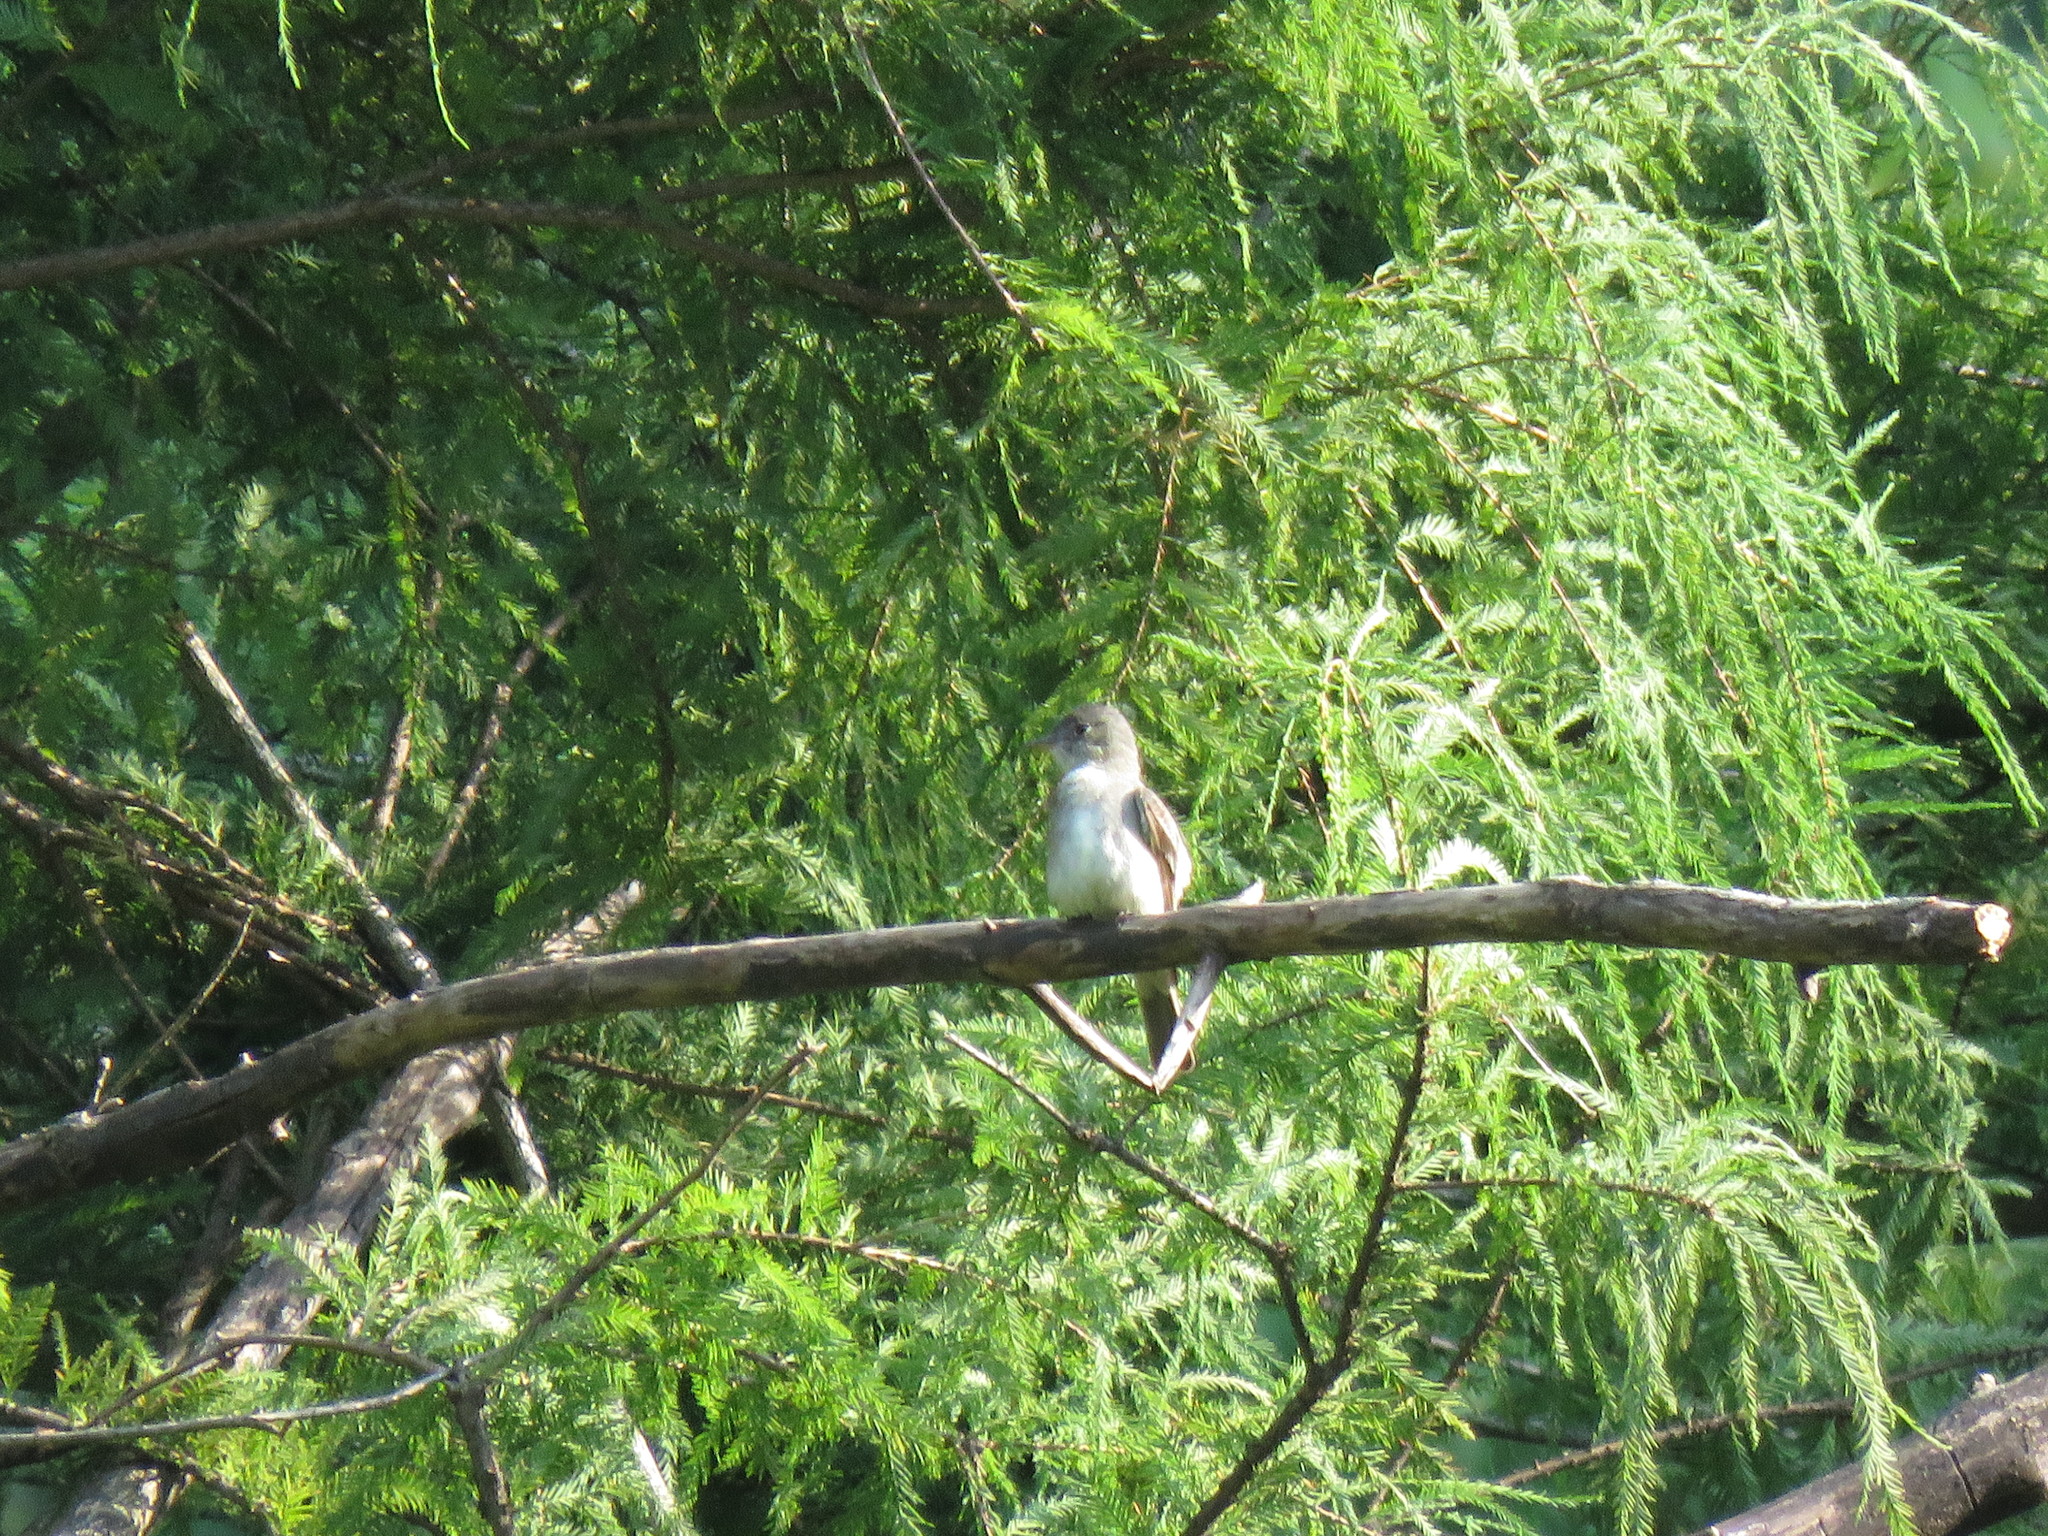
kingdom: Animalia
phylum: Chordata
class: Aves
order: Passeriformes
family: Tyrannidae
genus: Myiarchus
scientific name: Myiarchus crinitus
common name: Great crested flycatcher
